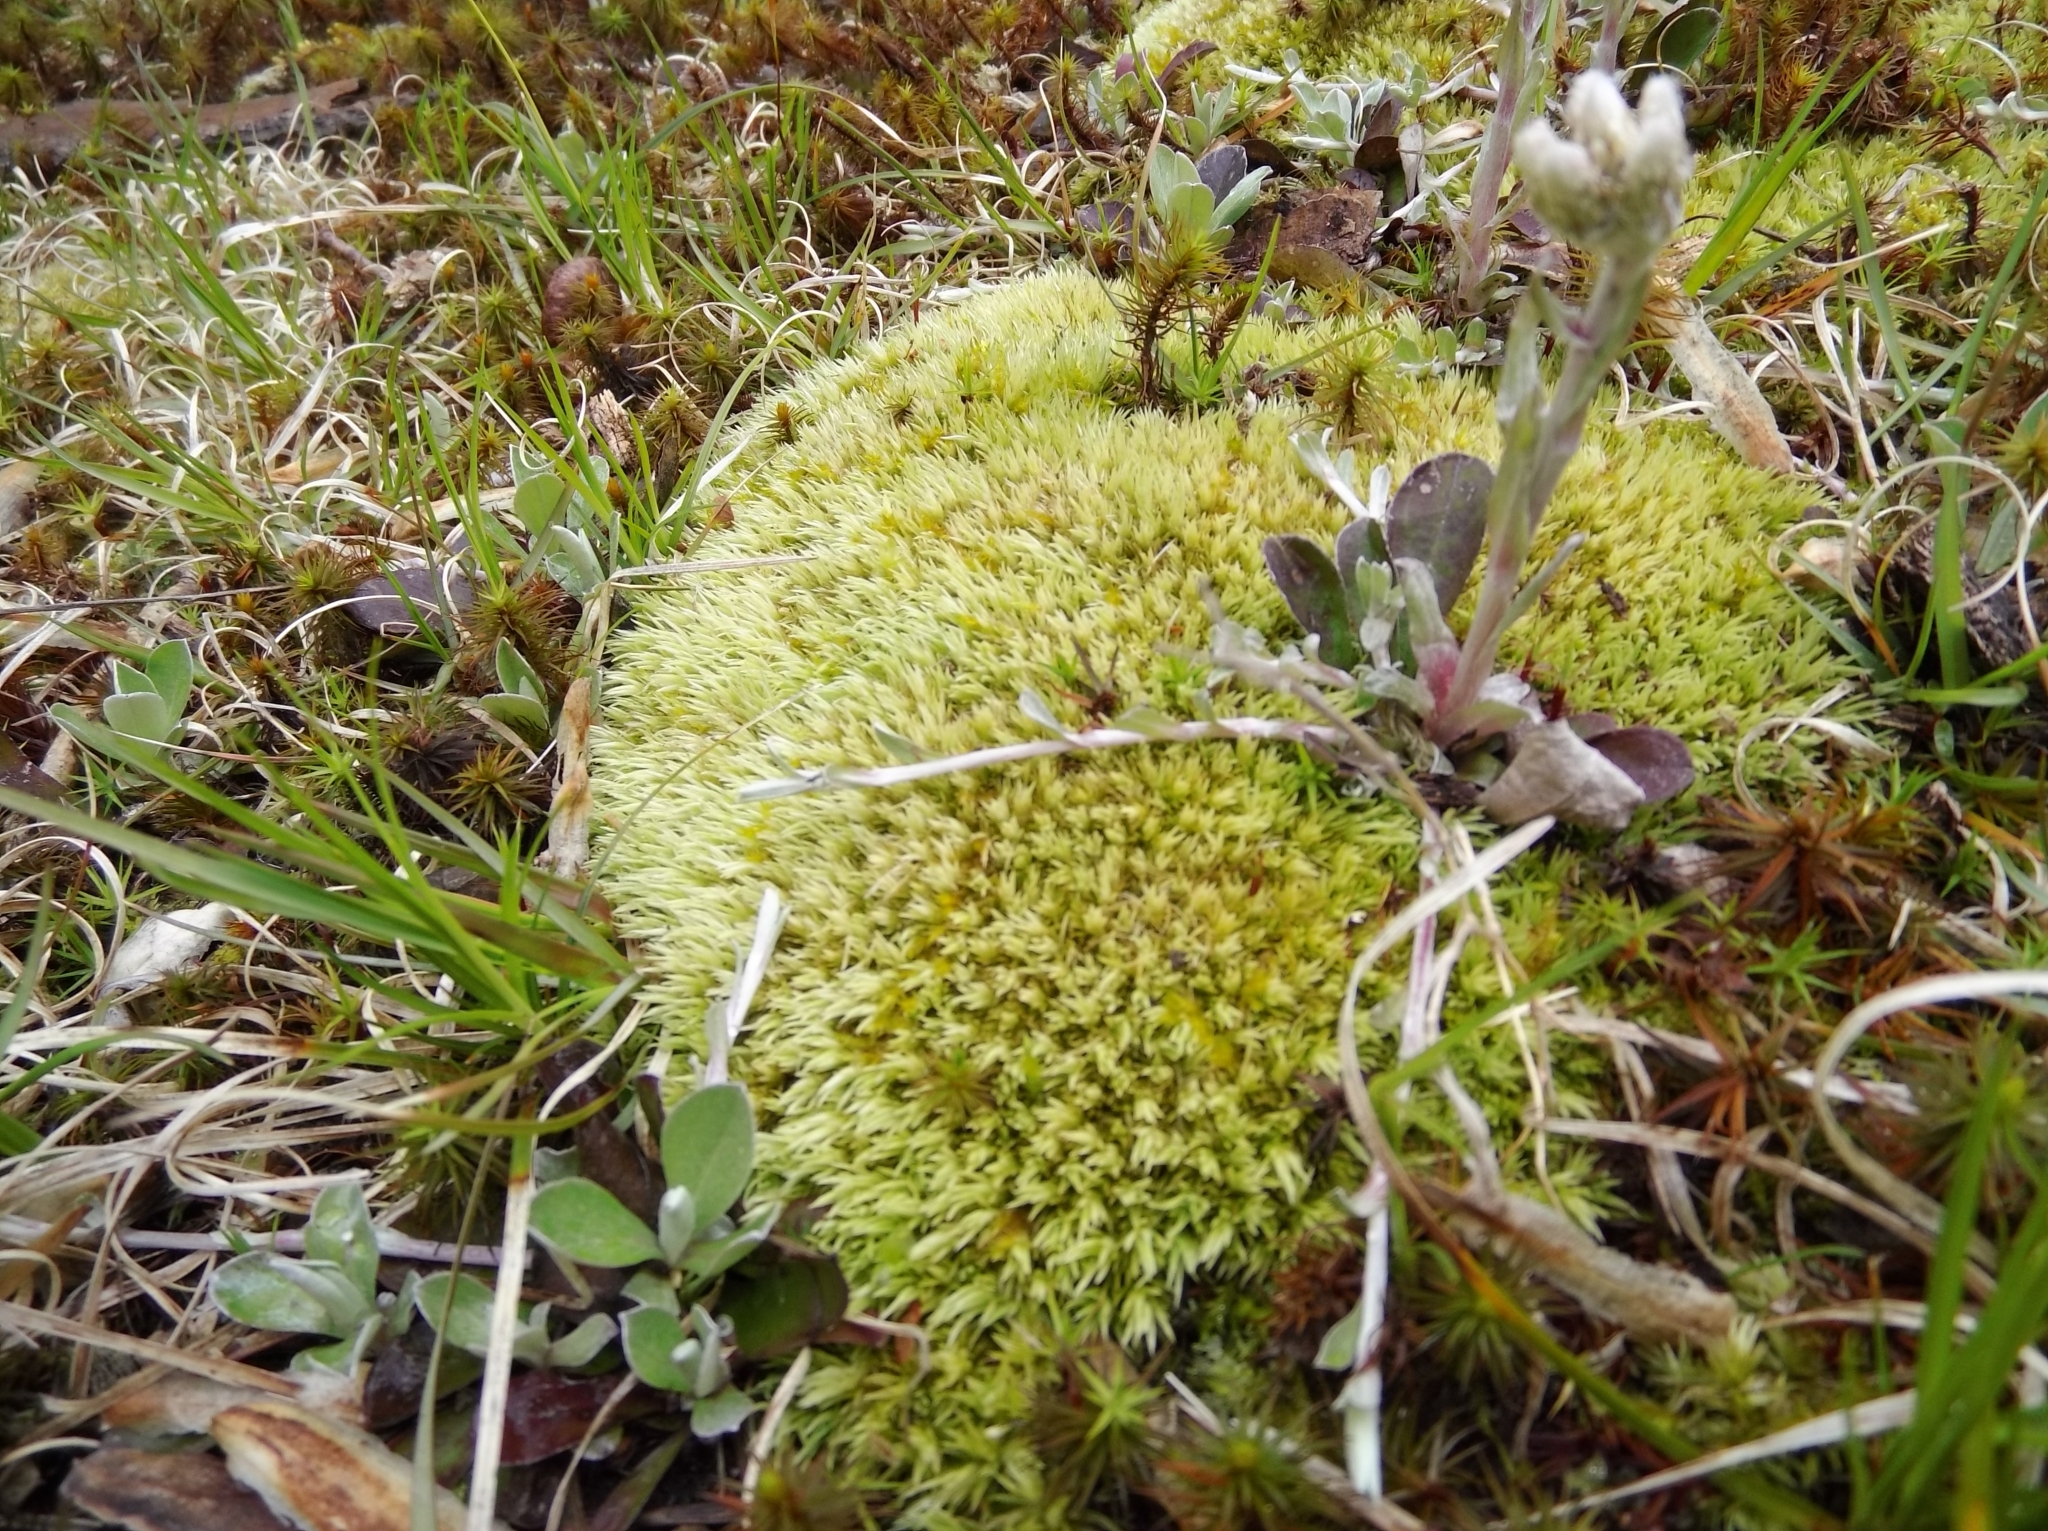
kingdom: Plantae
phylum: Bryophyta
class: Bryopsida
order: Dicranales
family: Leucobryaceae
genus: Leucobryum
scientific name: Leucobryum glaucum
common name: Large white-moss
